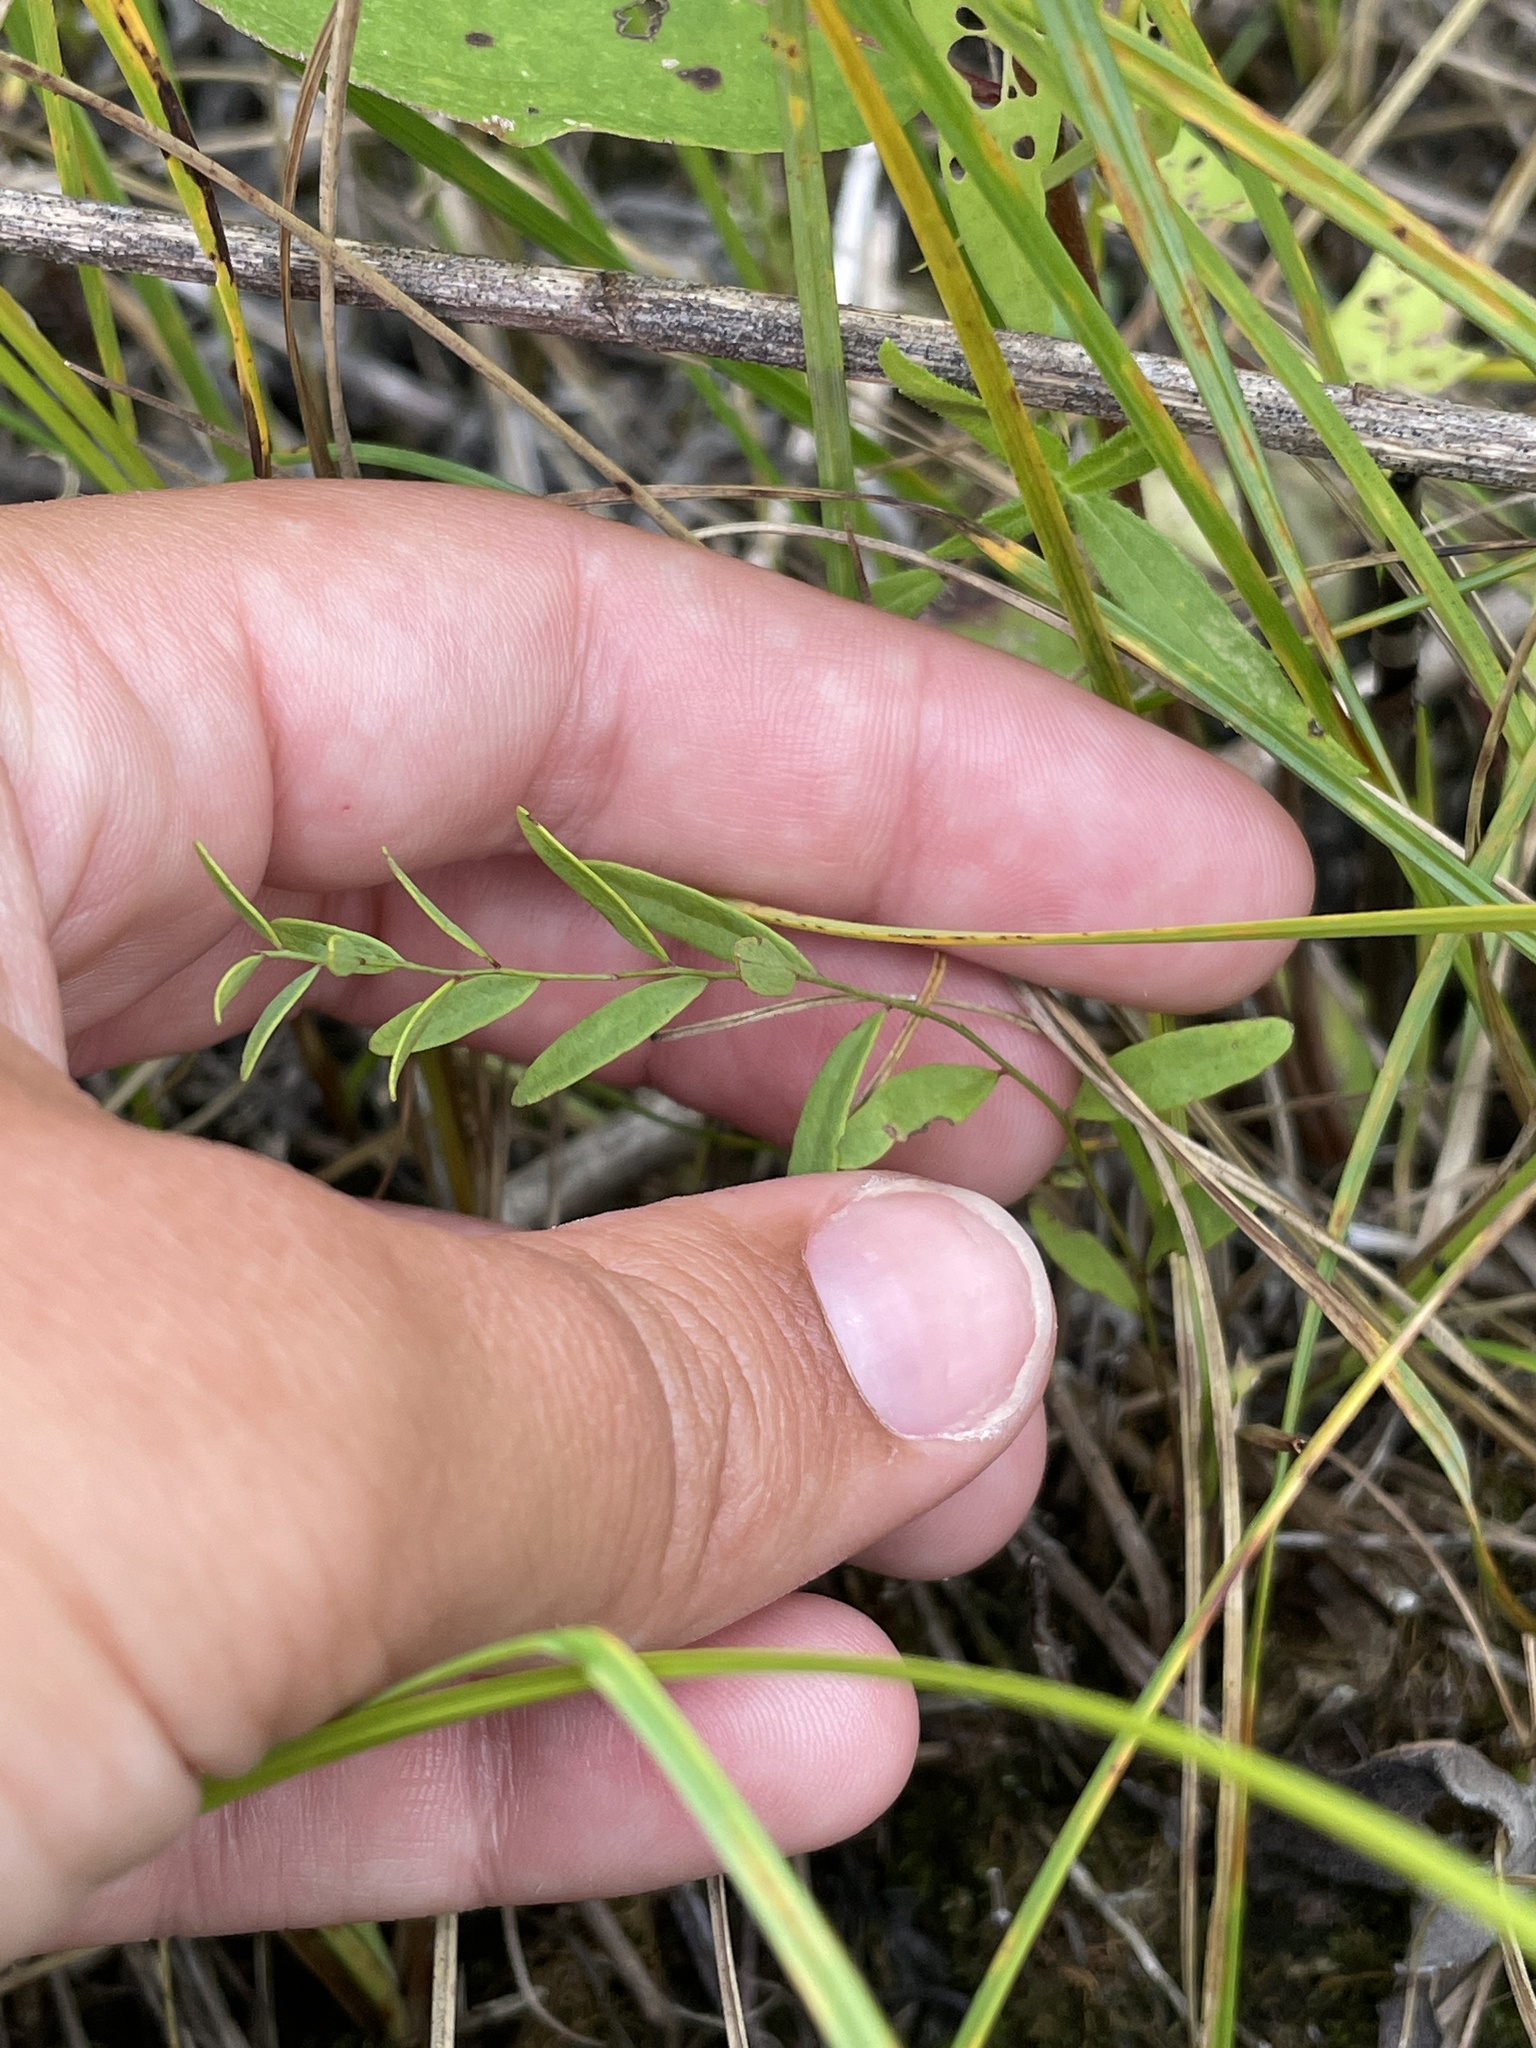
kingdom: Plantae
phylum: Tracheophyta
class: Magnoliopsida
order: Santalales
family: Comandraceae
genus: Comandra
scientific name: Comandra umbellata
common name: Bastard toadflax
